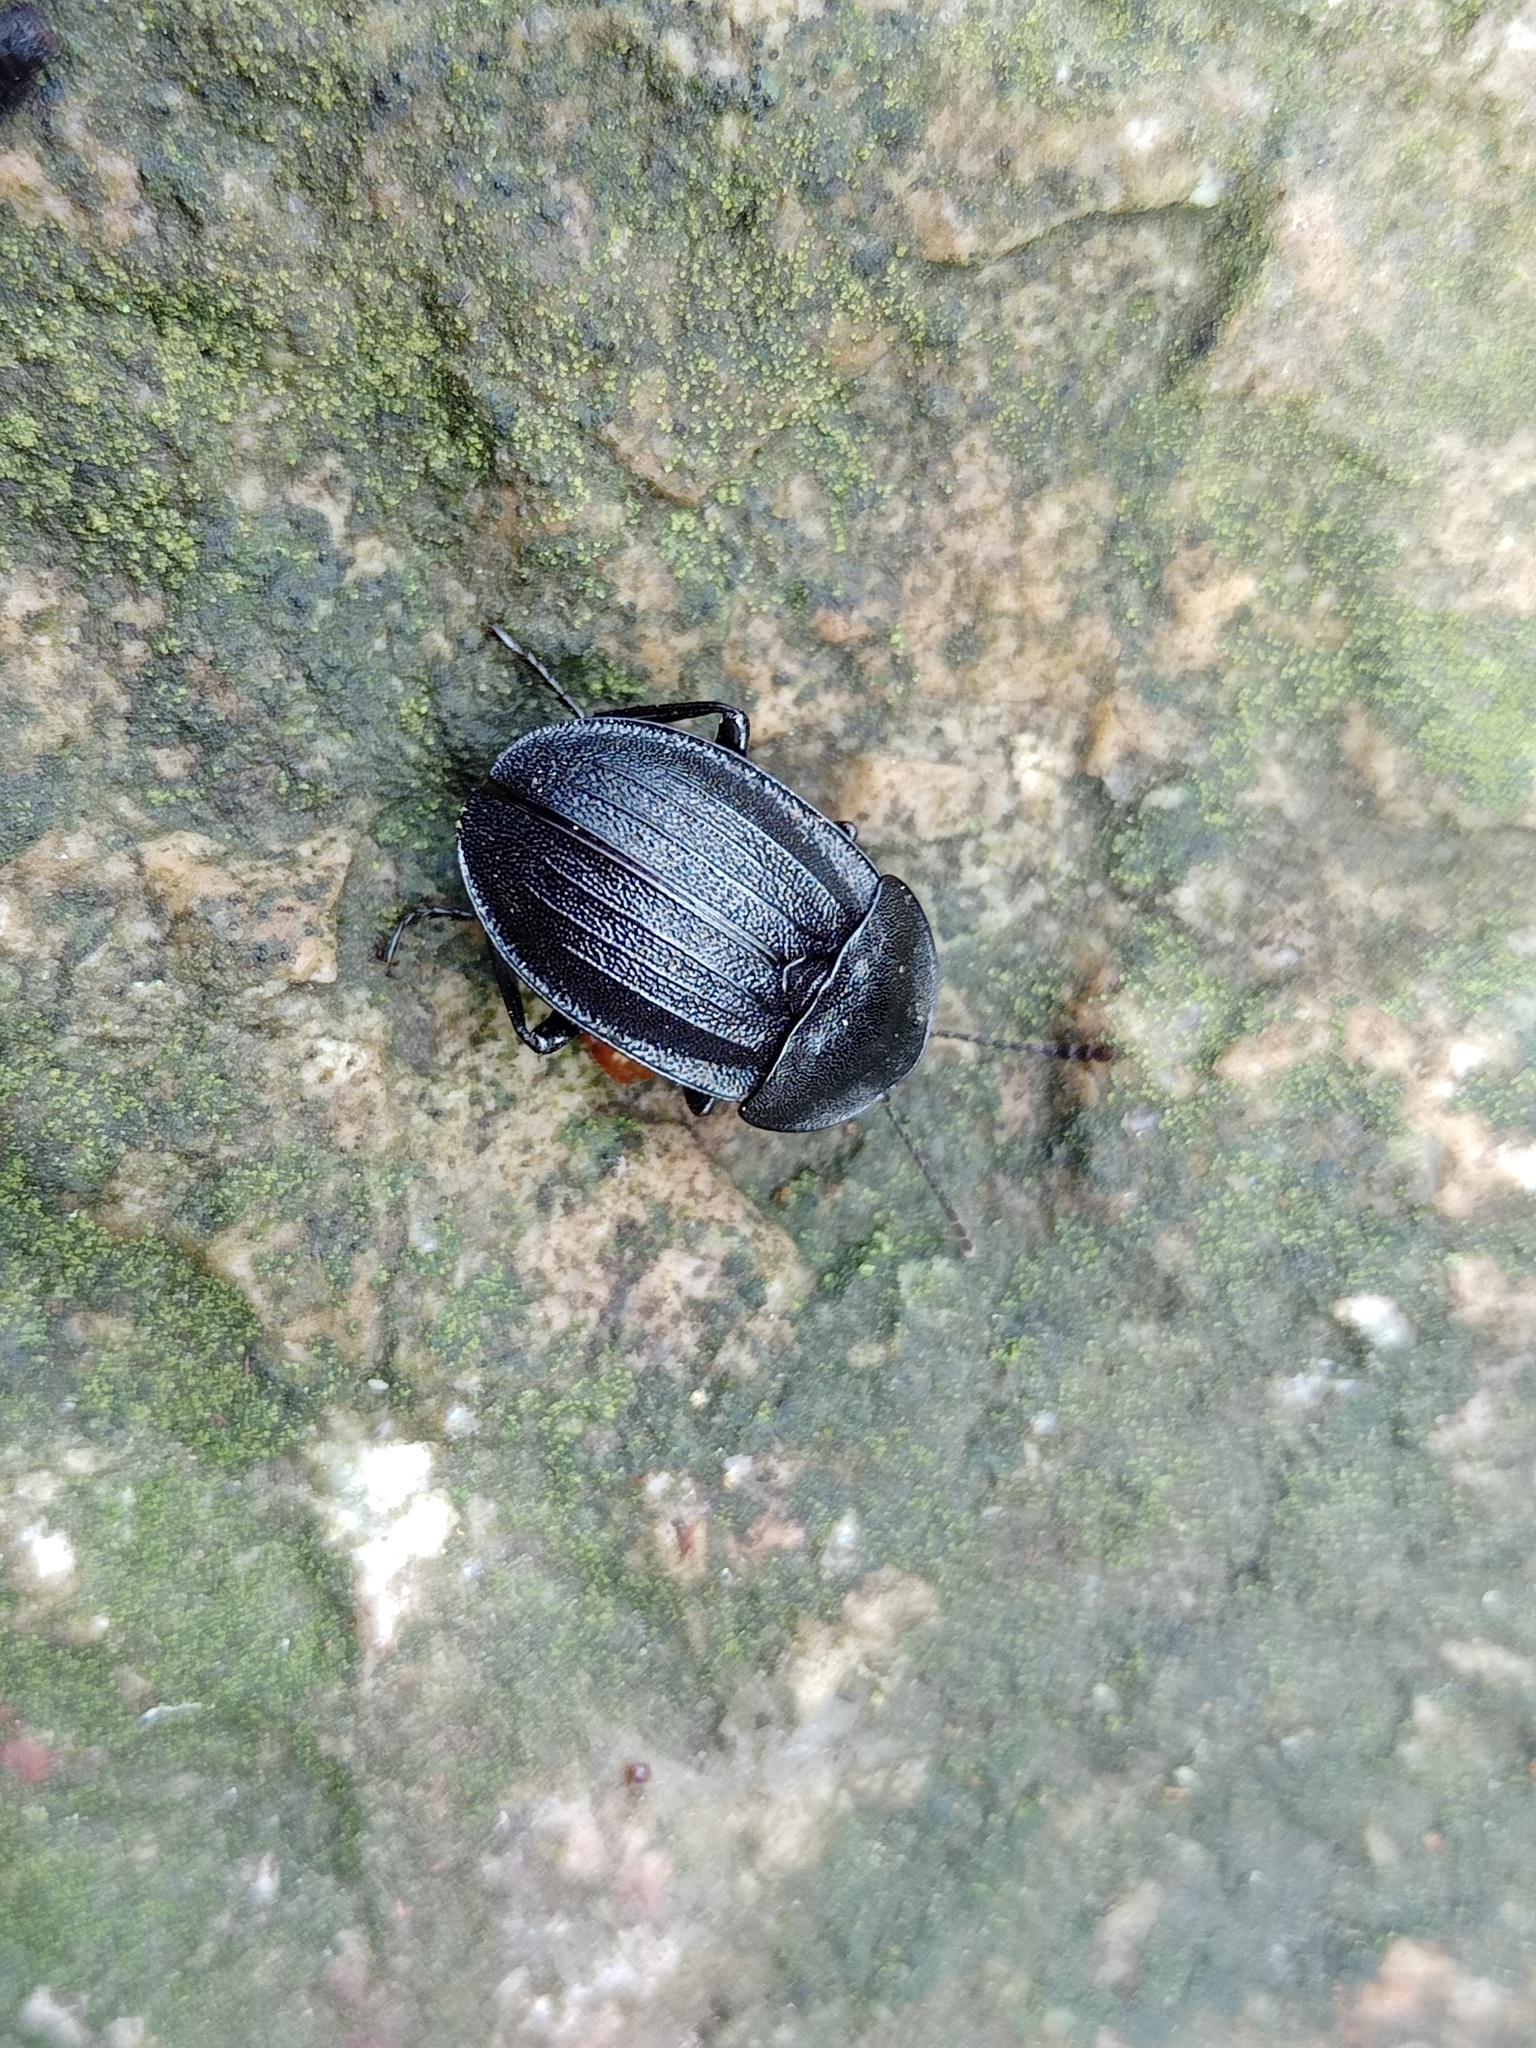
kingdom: Animalia
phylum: Arthropoda
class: Insecta
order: Coleoptera
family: Staphylinidae
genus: Silpha
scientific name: Silpha atrata
